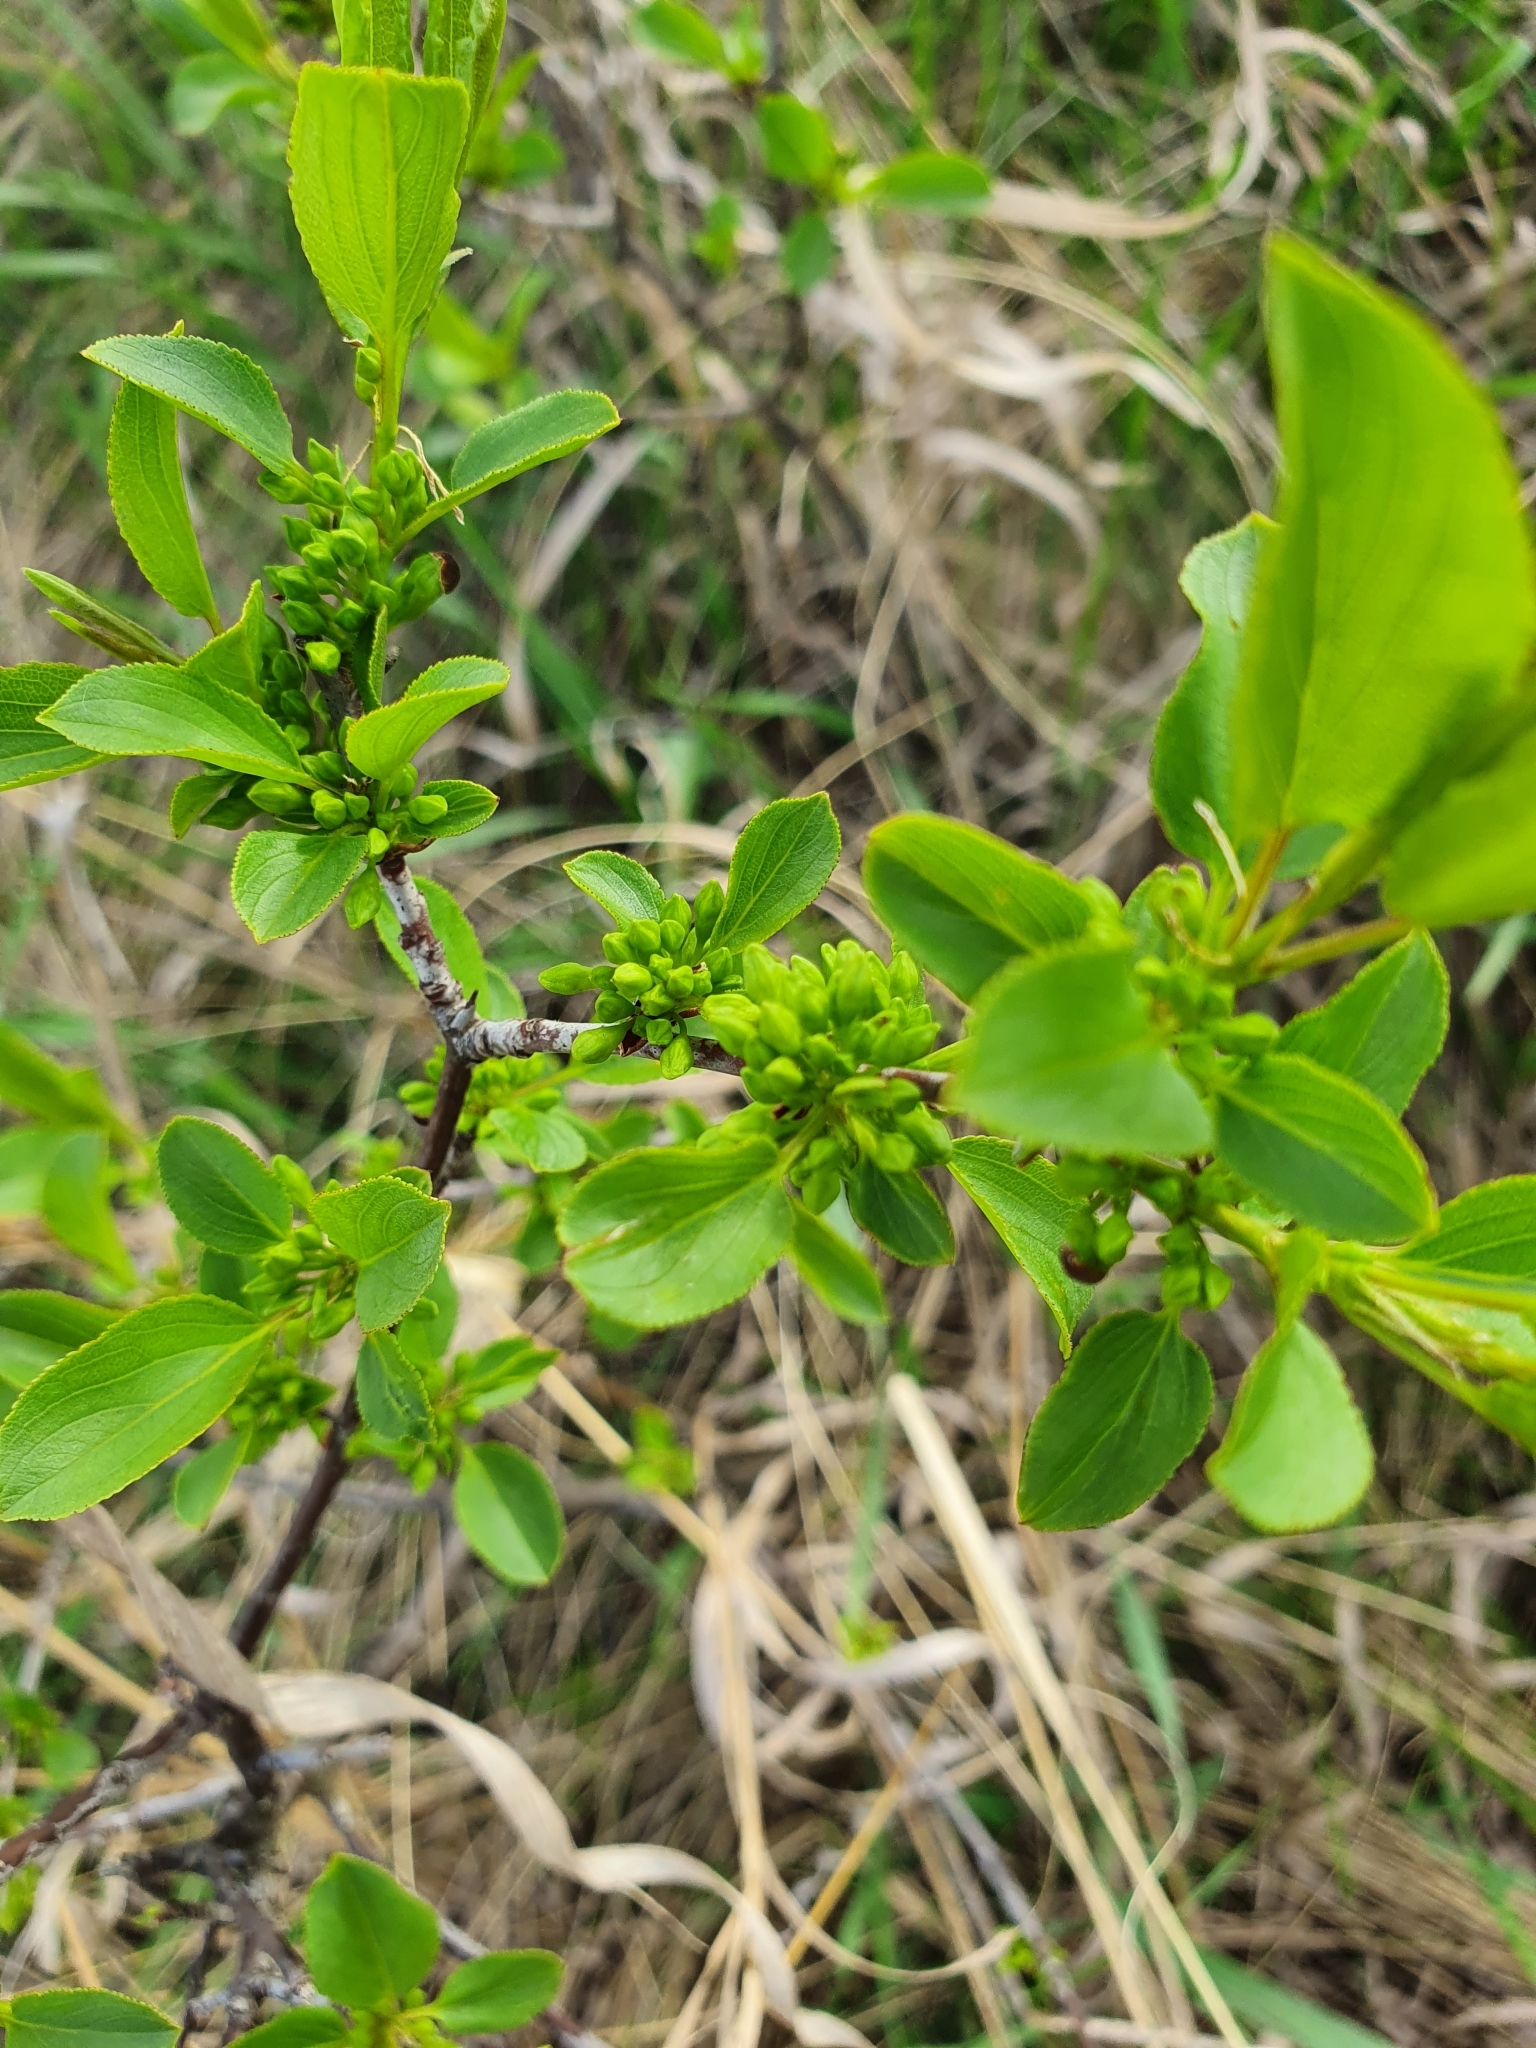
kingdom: Plantae
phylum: Tracheophyta
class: Magnoliopsida
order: Rosales
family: Rhamnaceae
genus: Rhamnus
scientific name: Rhamnus cathartica
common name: Common buckthorn
